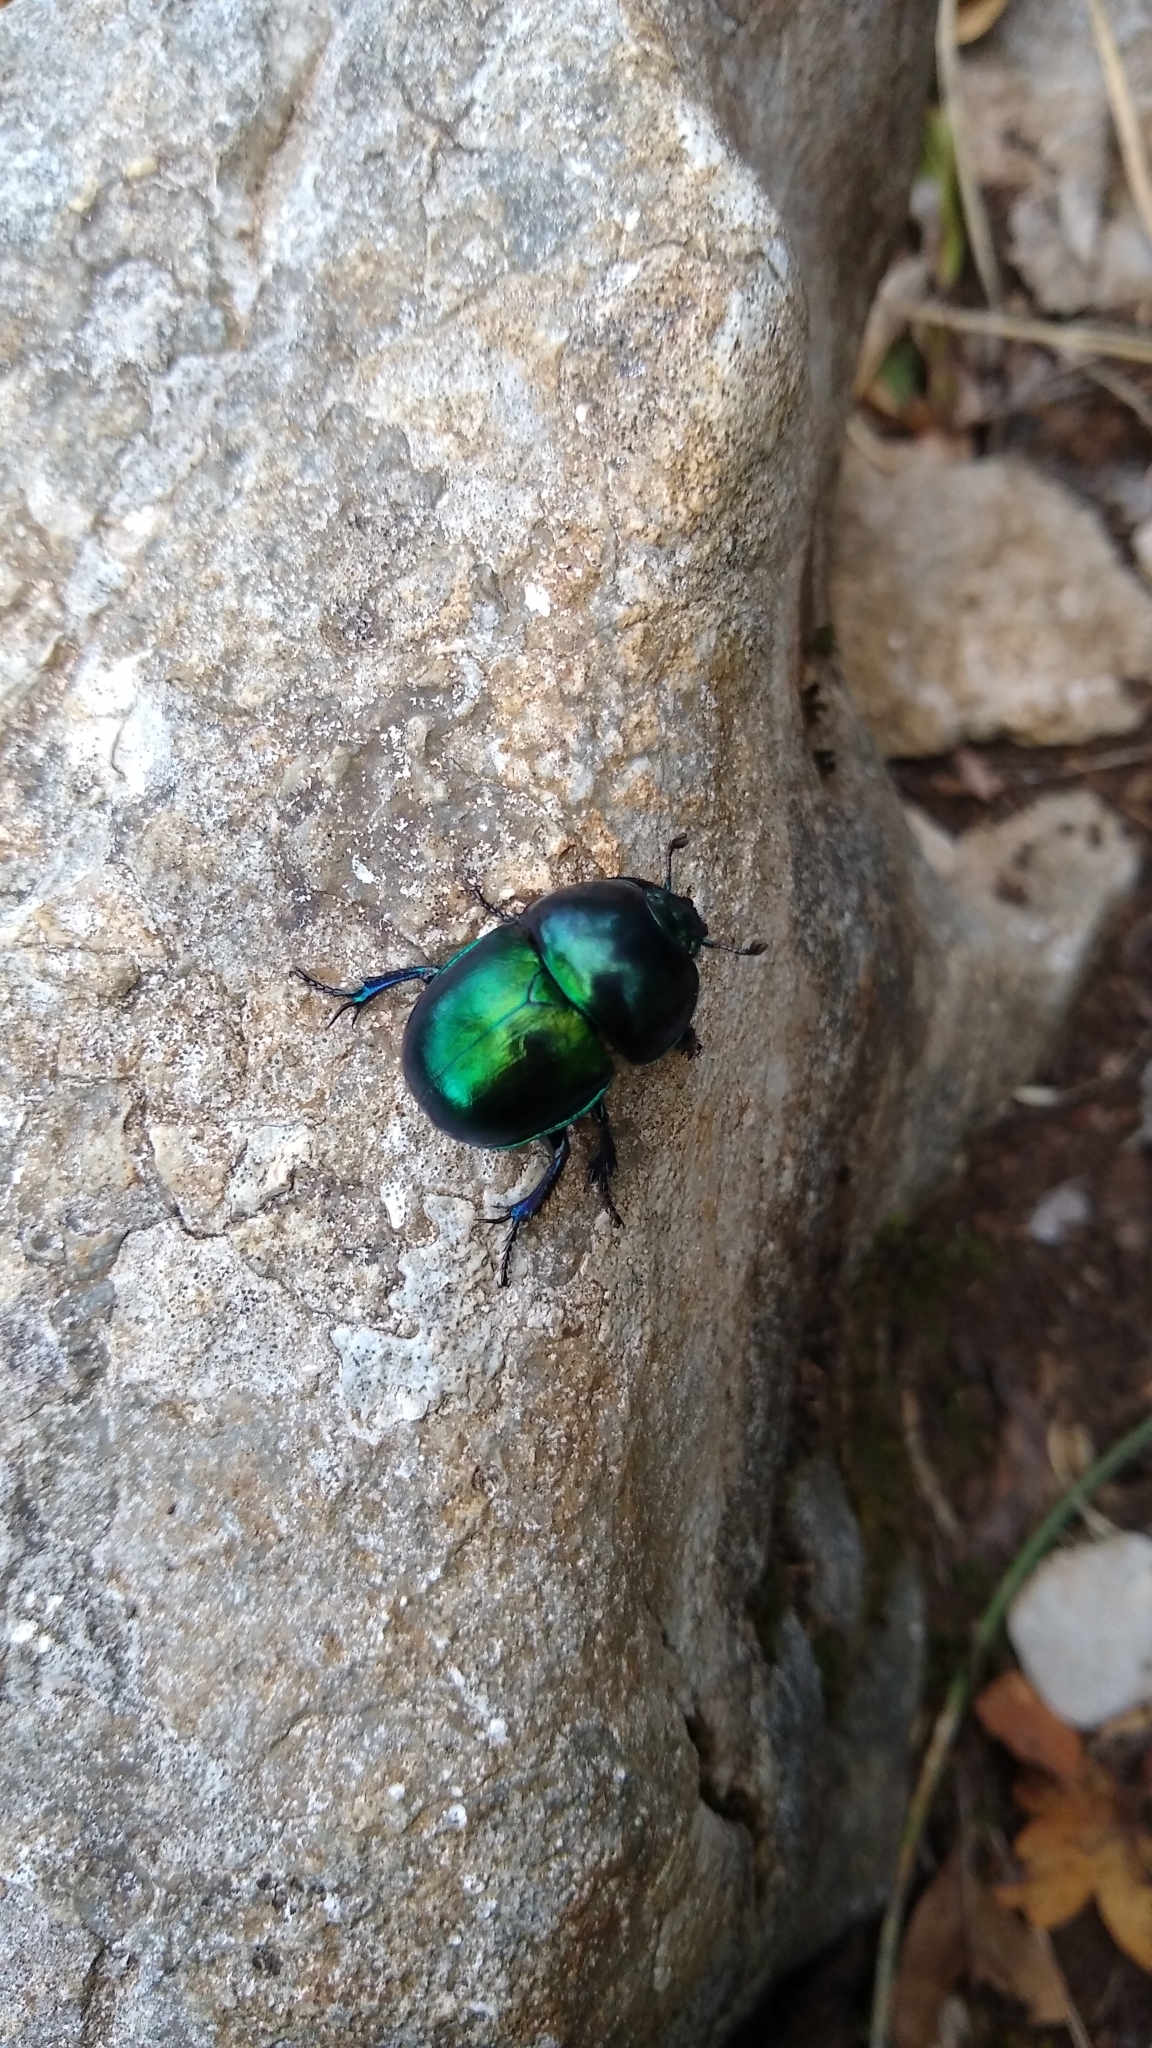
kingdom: Animalia
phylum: Arthropoda
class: Insecta
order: Coleoptera
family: Geotrupidae
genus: Trypocopris
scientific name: Trypocopris vernalis
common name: Spring dumbledor
